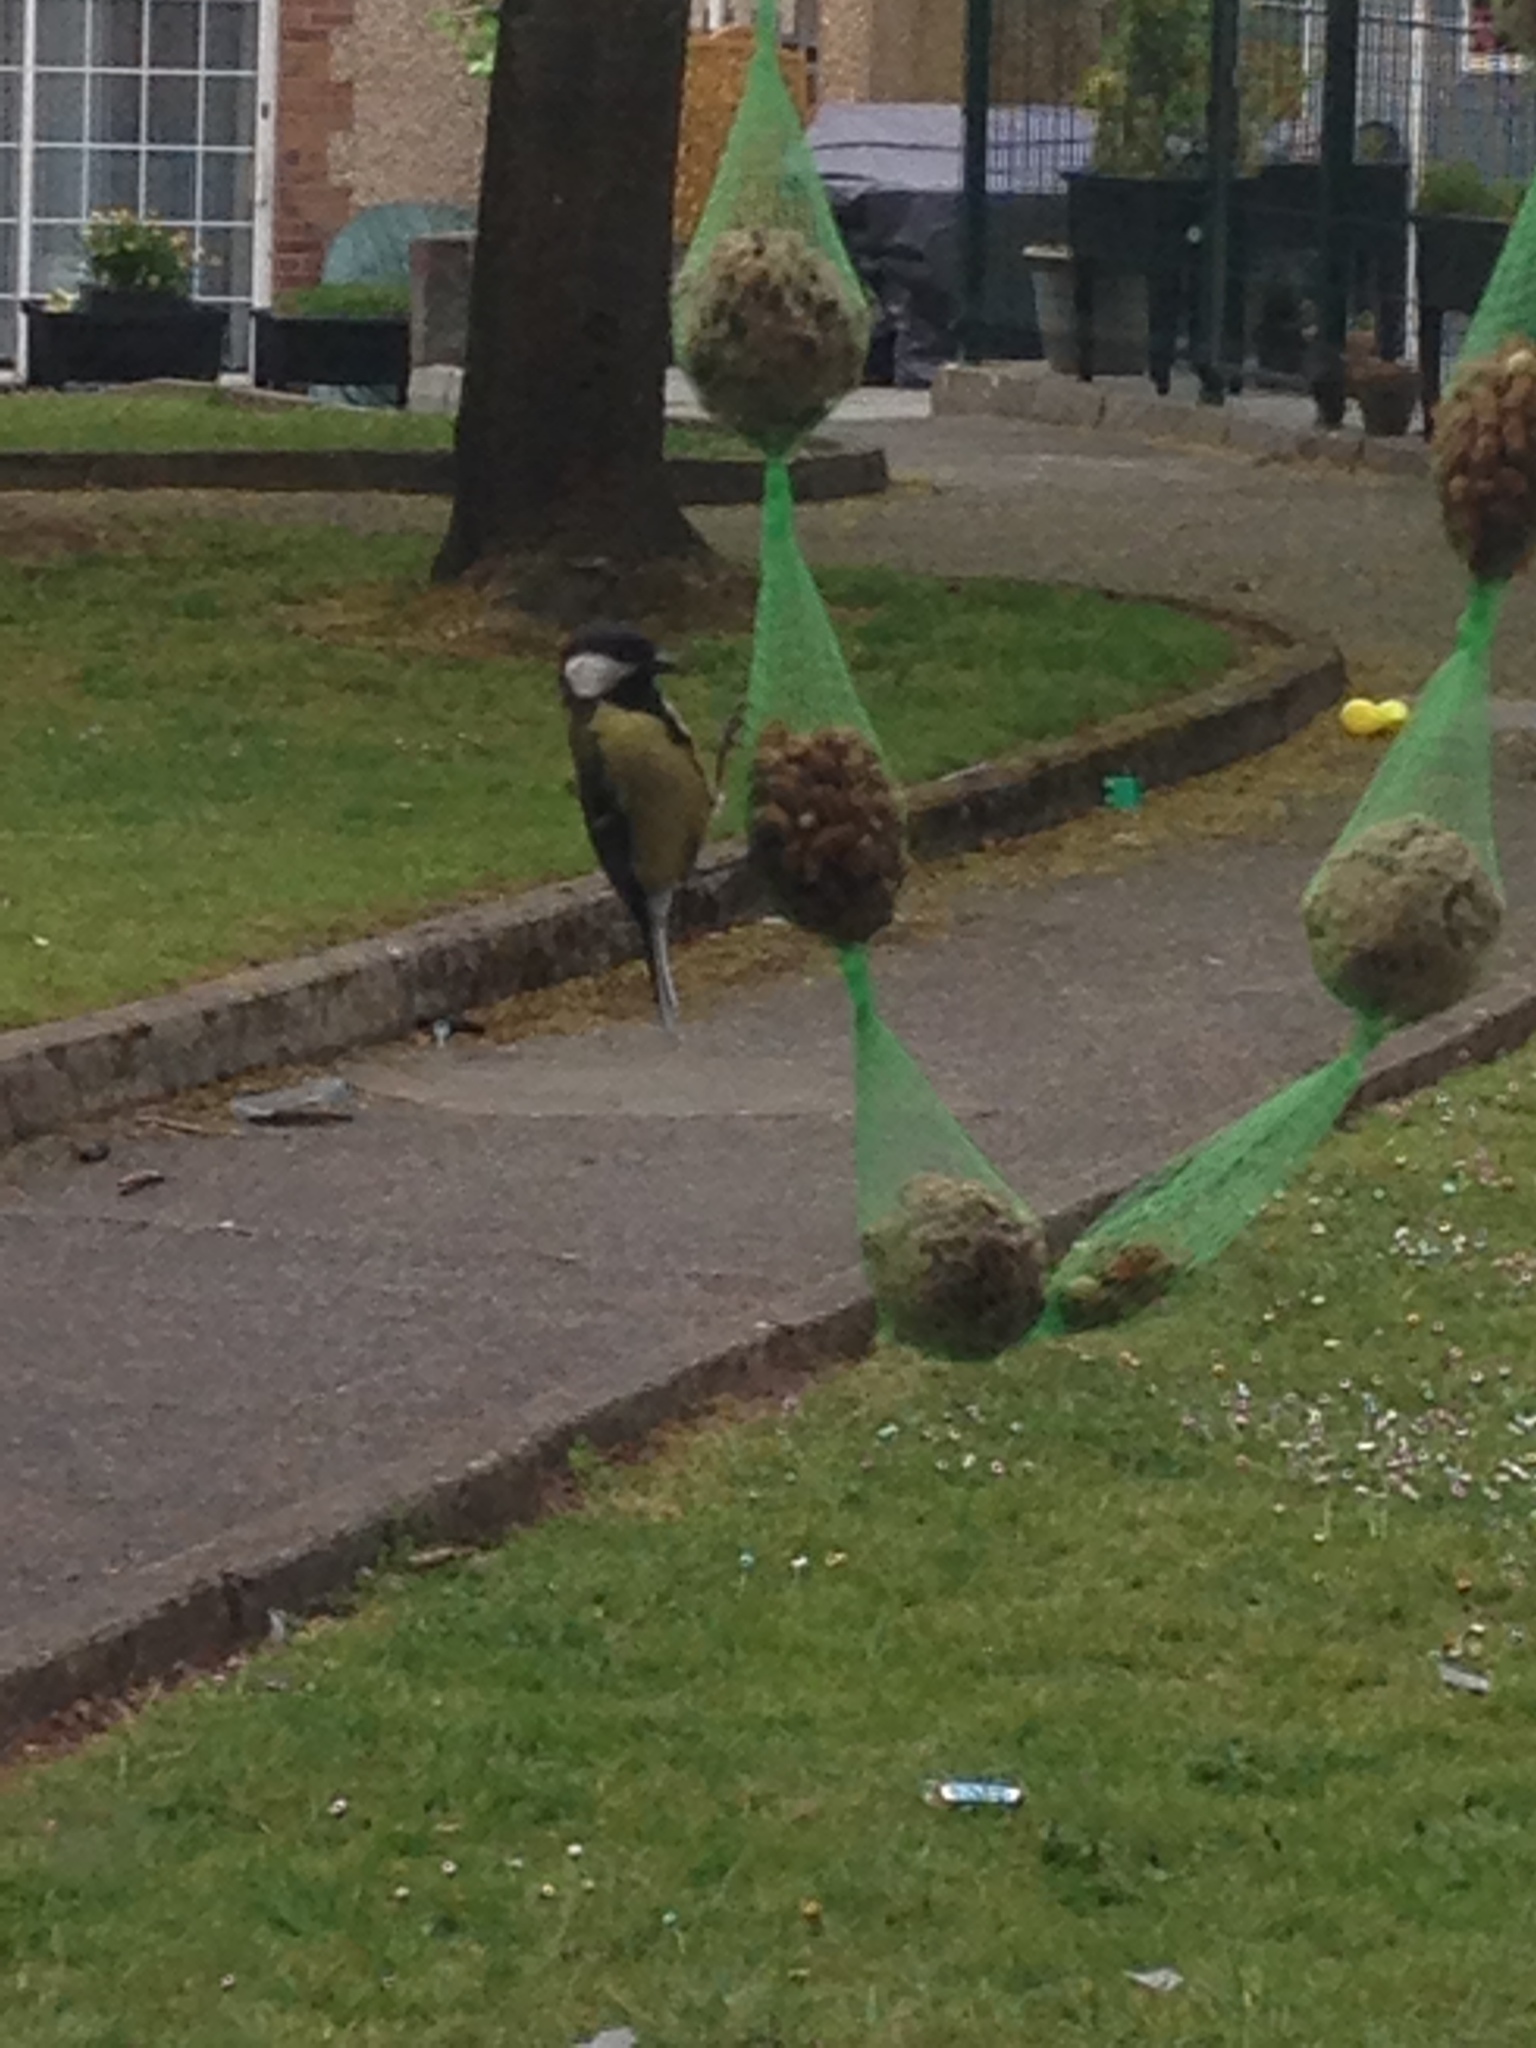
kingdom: Animalia
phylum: Chordata
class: Aves
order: Passeriformes
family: Paridae
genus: Parus
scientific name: Parus major
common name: Great tit
